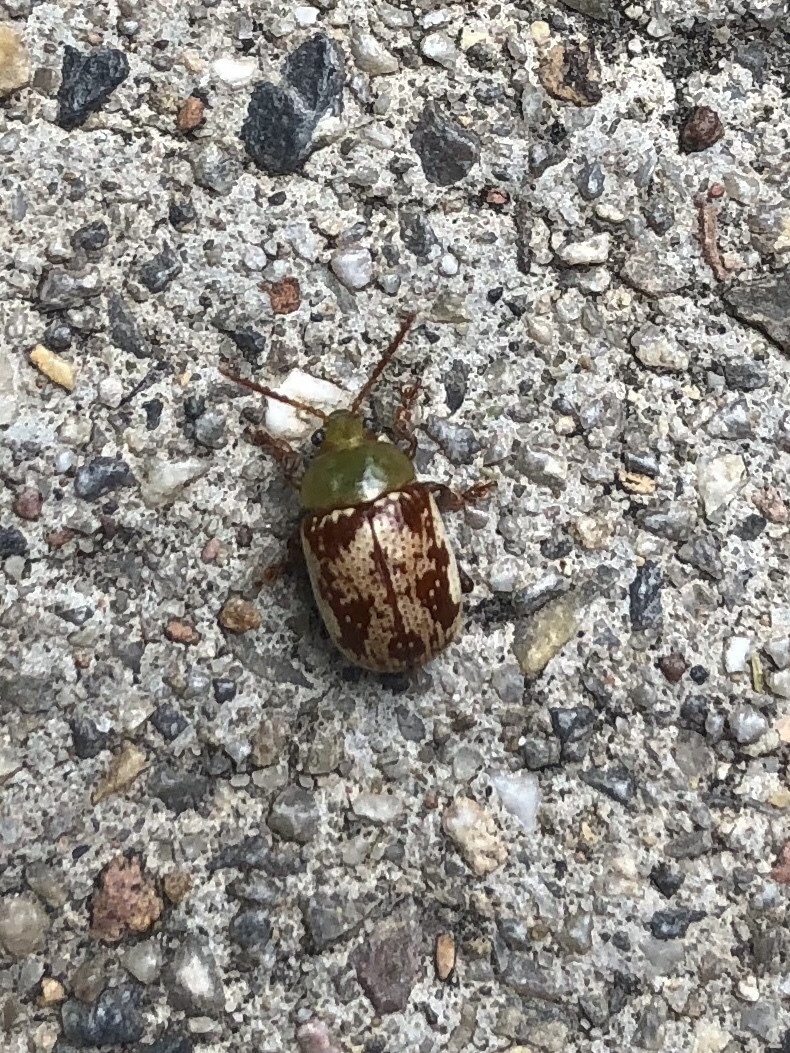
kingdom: Animalia
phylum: Arthropoda
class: Insecta
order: Coleoptera
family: Chrysomelidae
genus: Blepharida
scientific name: Blepharida rhois
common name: Sumac flea beetle
